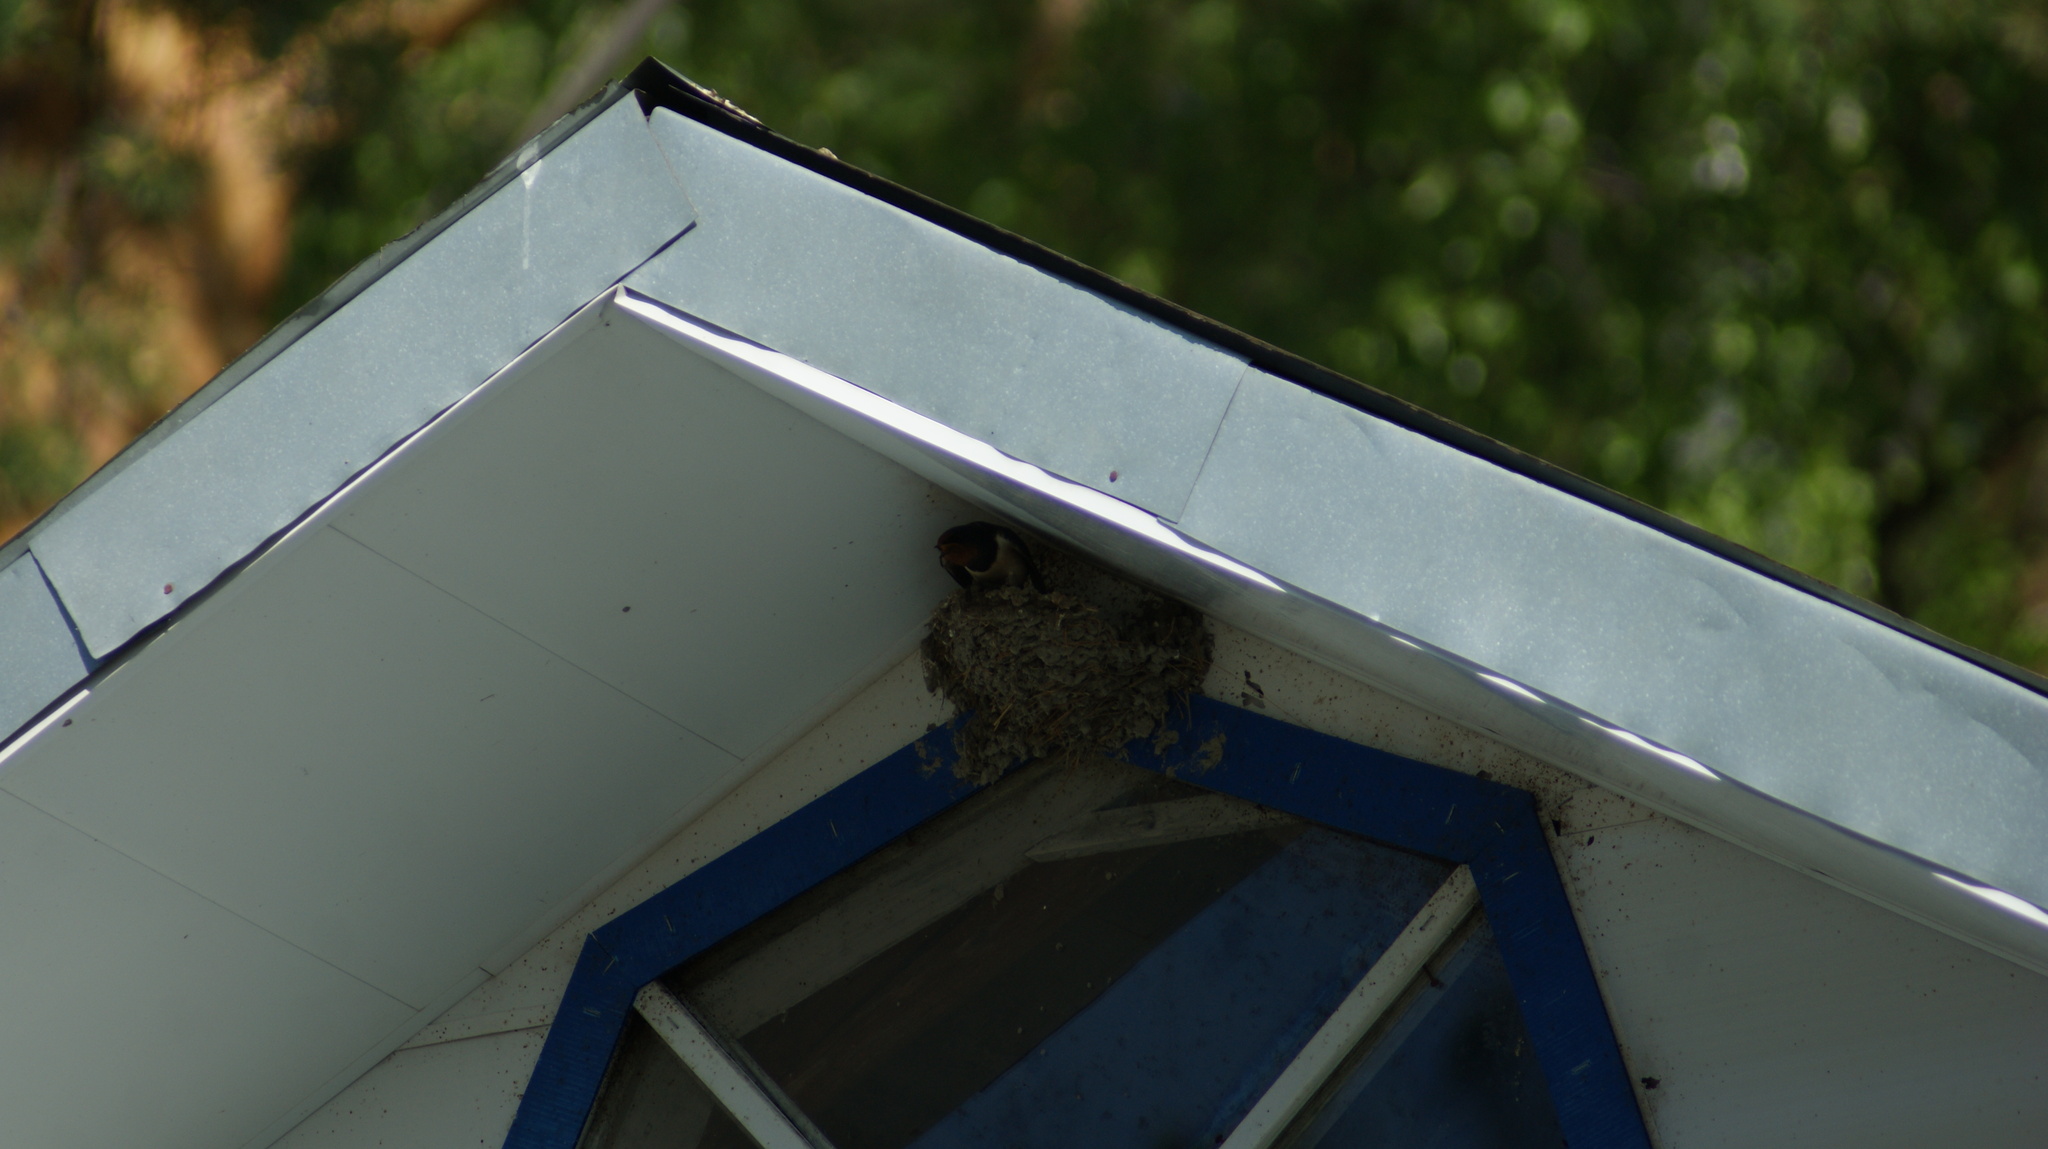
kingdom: Animalia
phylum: Chordata
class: Aves
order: Passeriformes
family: Hirundinidae
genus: Hirundo
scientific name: Hirundo rustica
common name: Barn swallow
